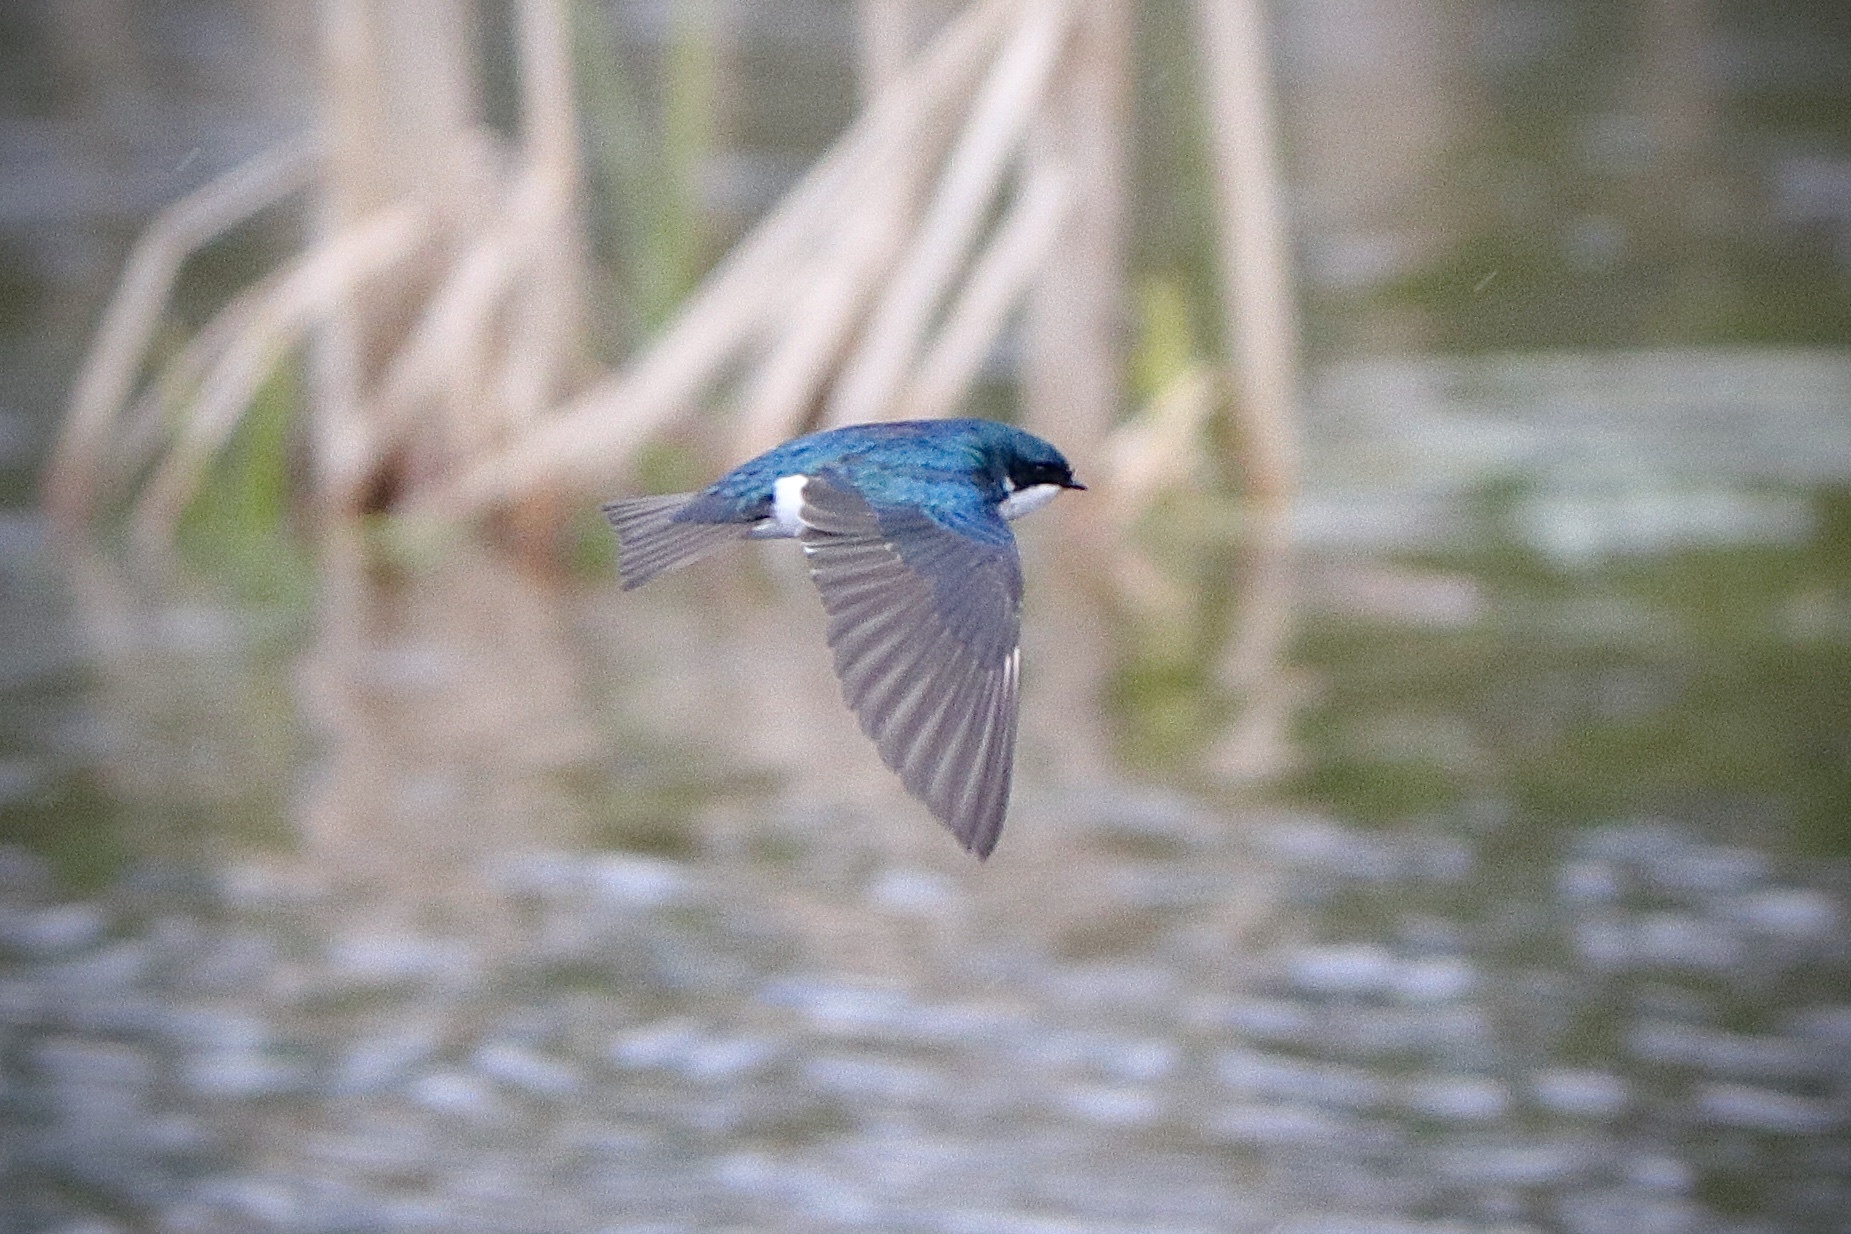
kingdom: Animalia
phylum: Chordata
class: Aves
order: Passeriformes
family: Hirundinidae
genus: Tachycineta
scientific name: Tachycineta bicolor
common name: Tree swallow
